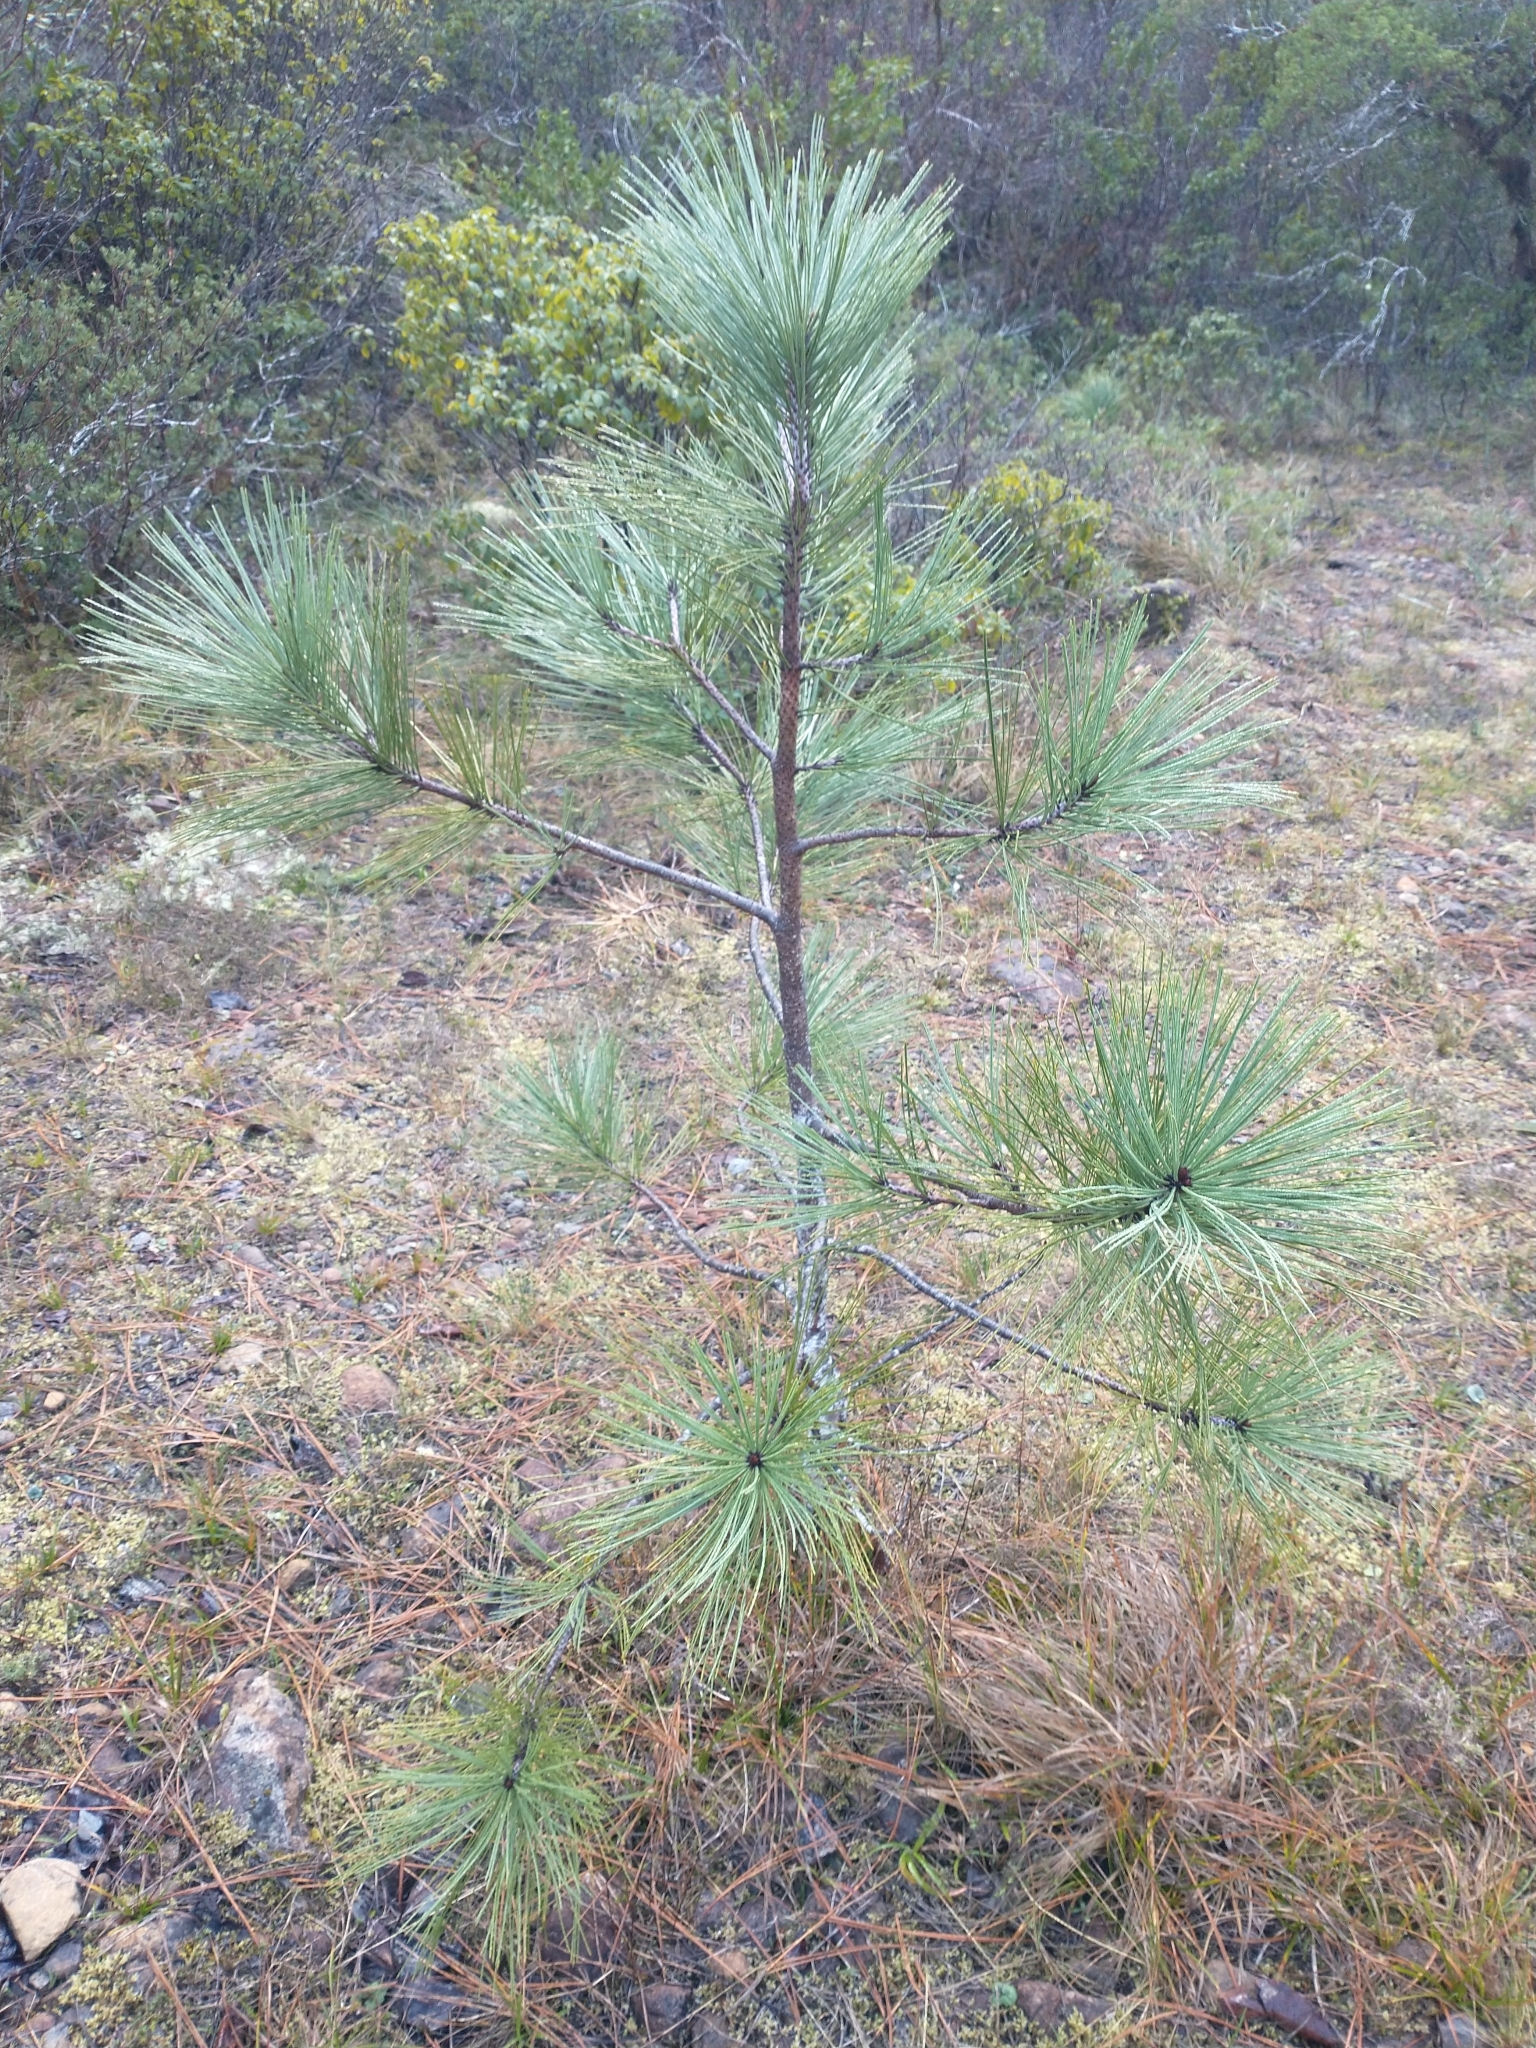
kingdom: Plantae
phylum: Tracheophyta
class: Pinopsida
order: Pinales
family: Pinaceae
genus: Pinus
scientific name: Pinus jeffreyi
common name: Jeffrey pine
